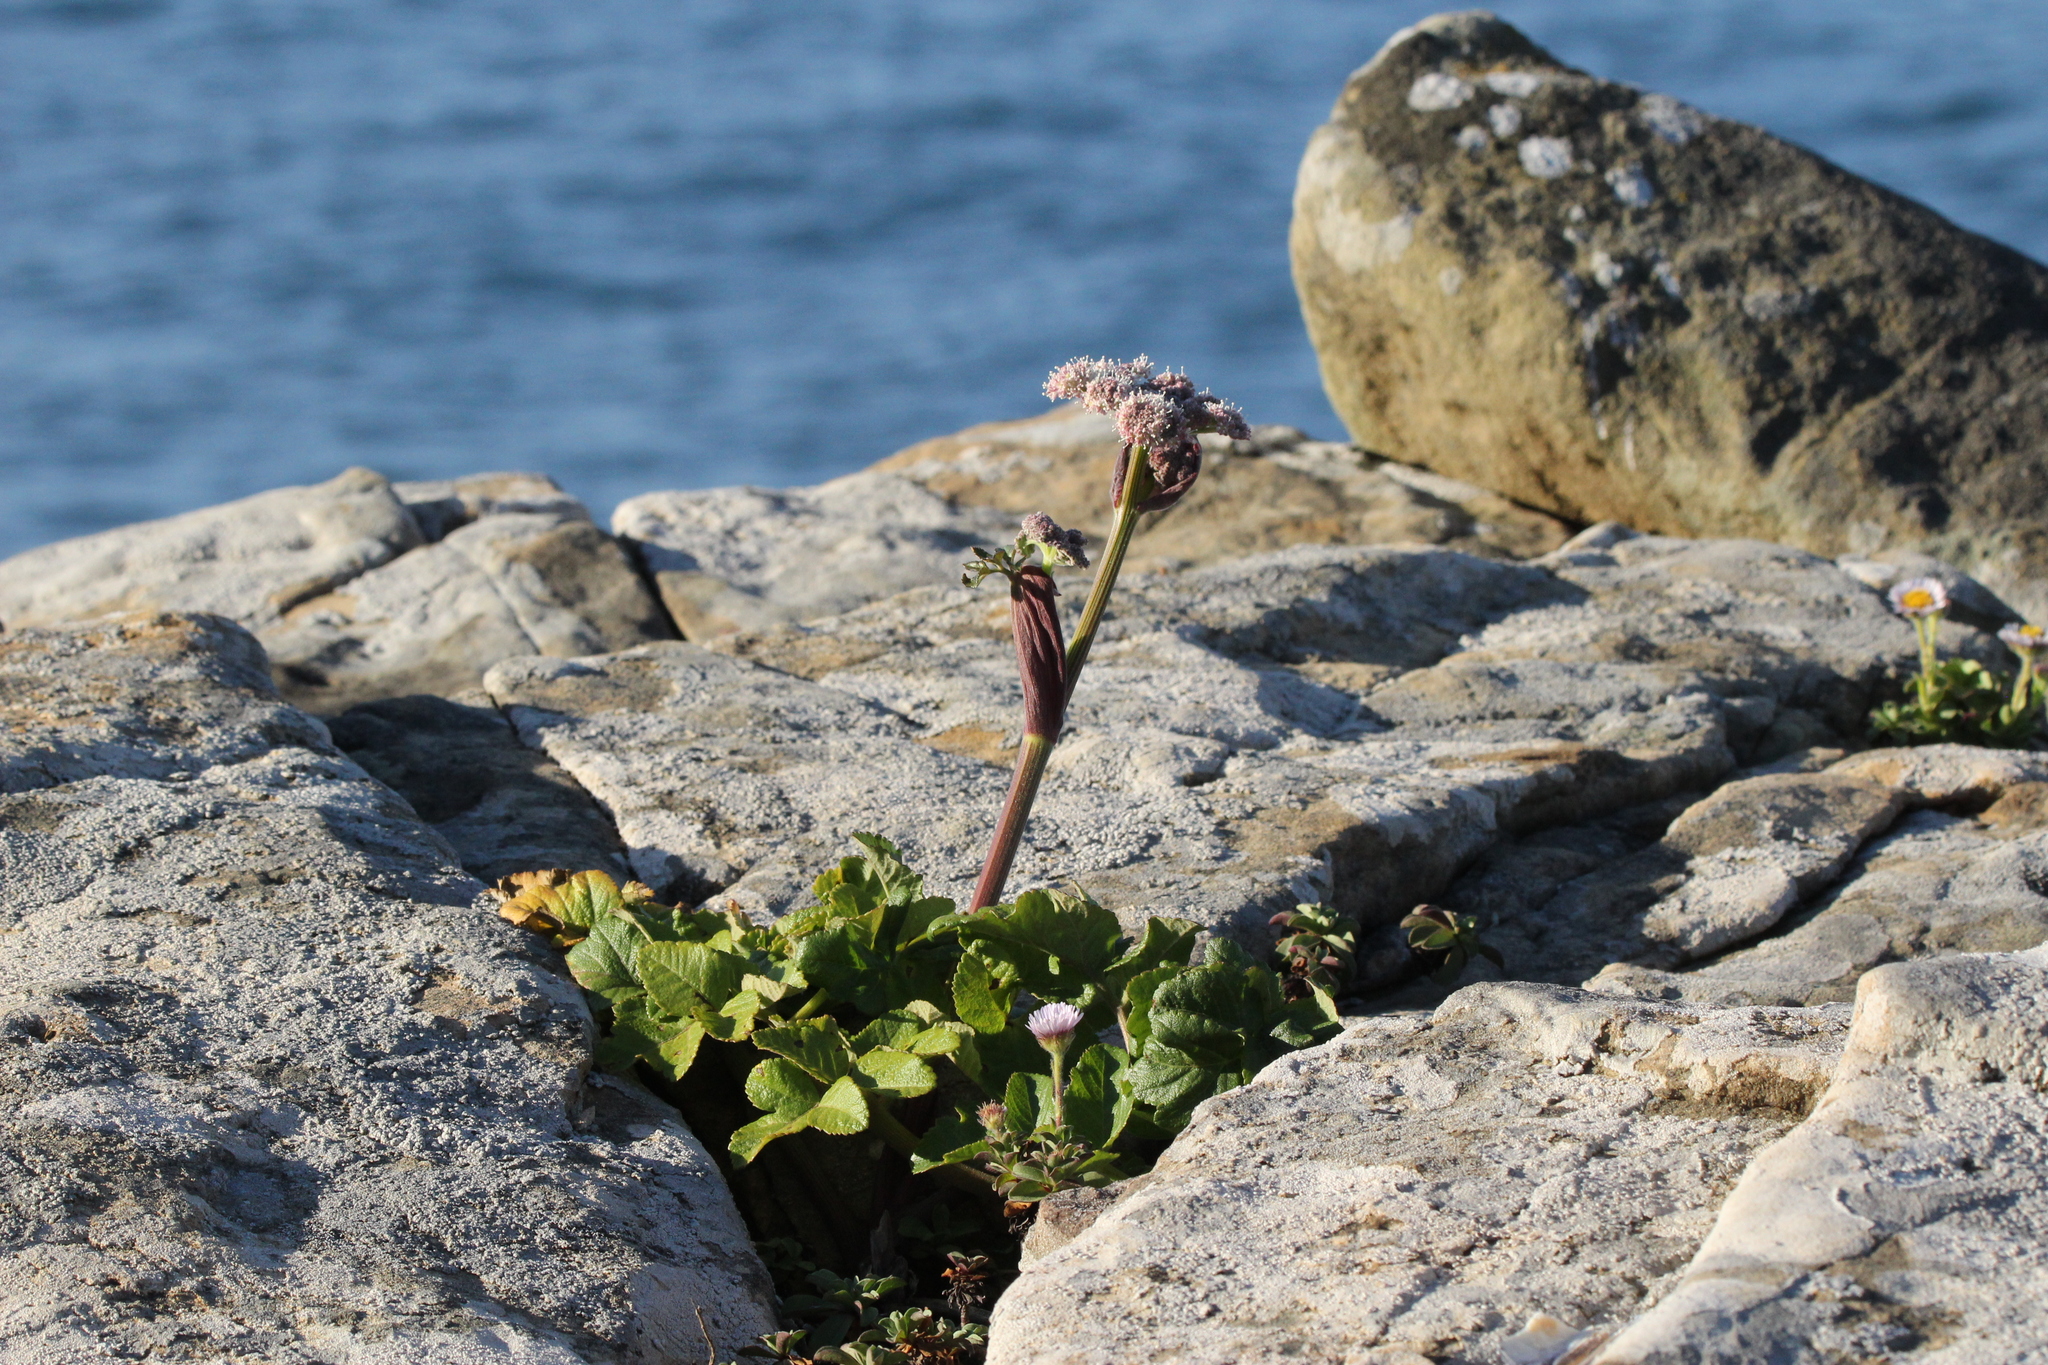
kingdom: Plantae
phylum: Tracheophyta
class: Magnoliopsida
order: Apiales
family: Apiaceae
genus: Angelica
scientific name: Angelica hendersonii
